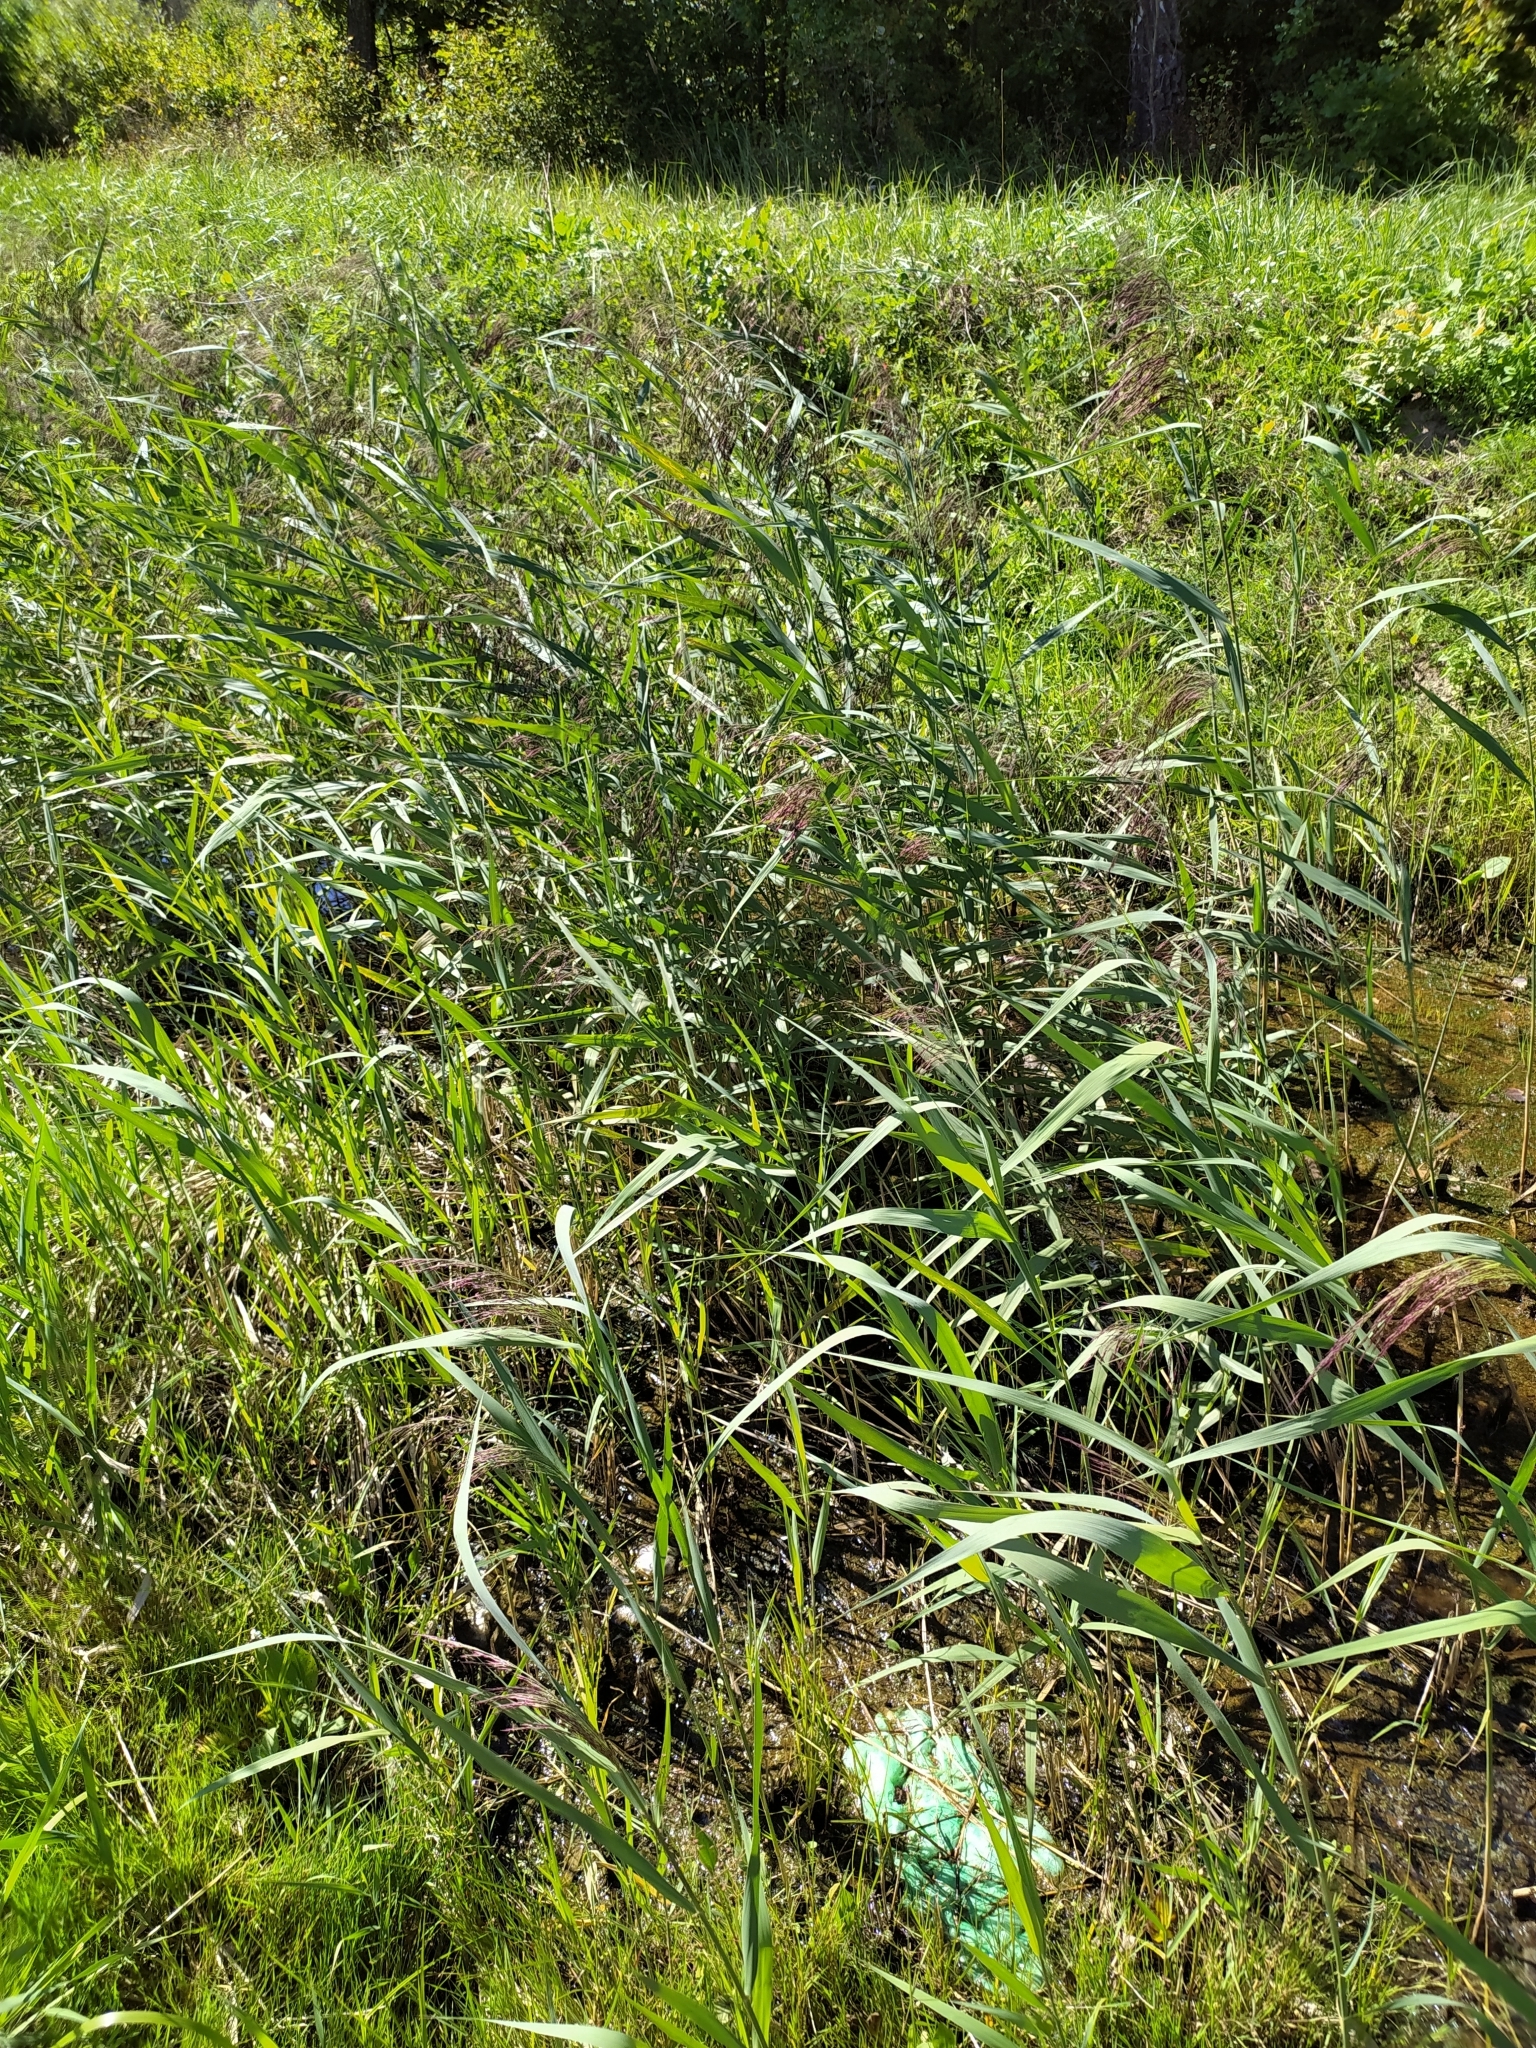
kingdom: Plantae
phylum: Tracheophyta
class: Liliopsida
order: Poales
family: Poaceae
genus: Phragmites
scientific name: Phragmites australis
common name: Common reed
